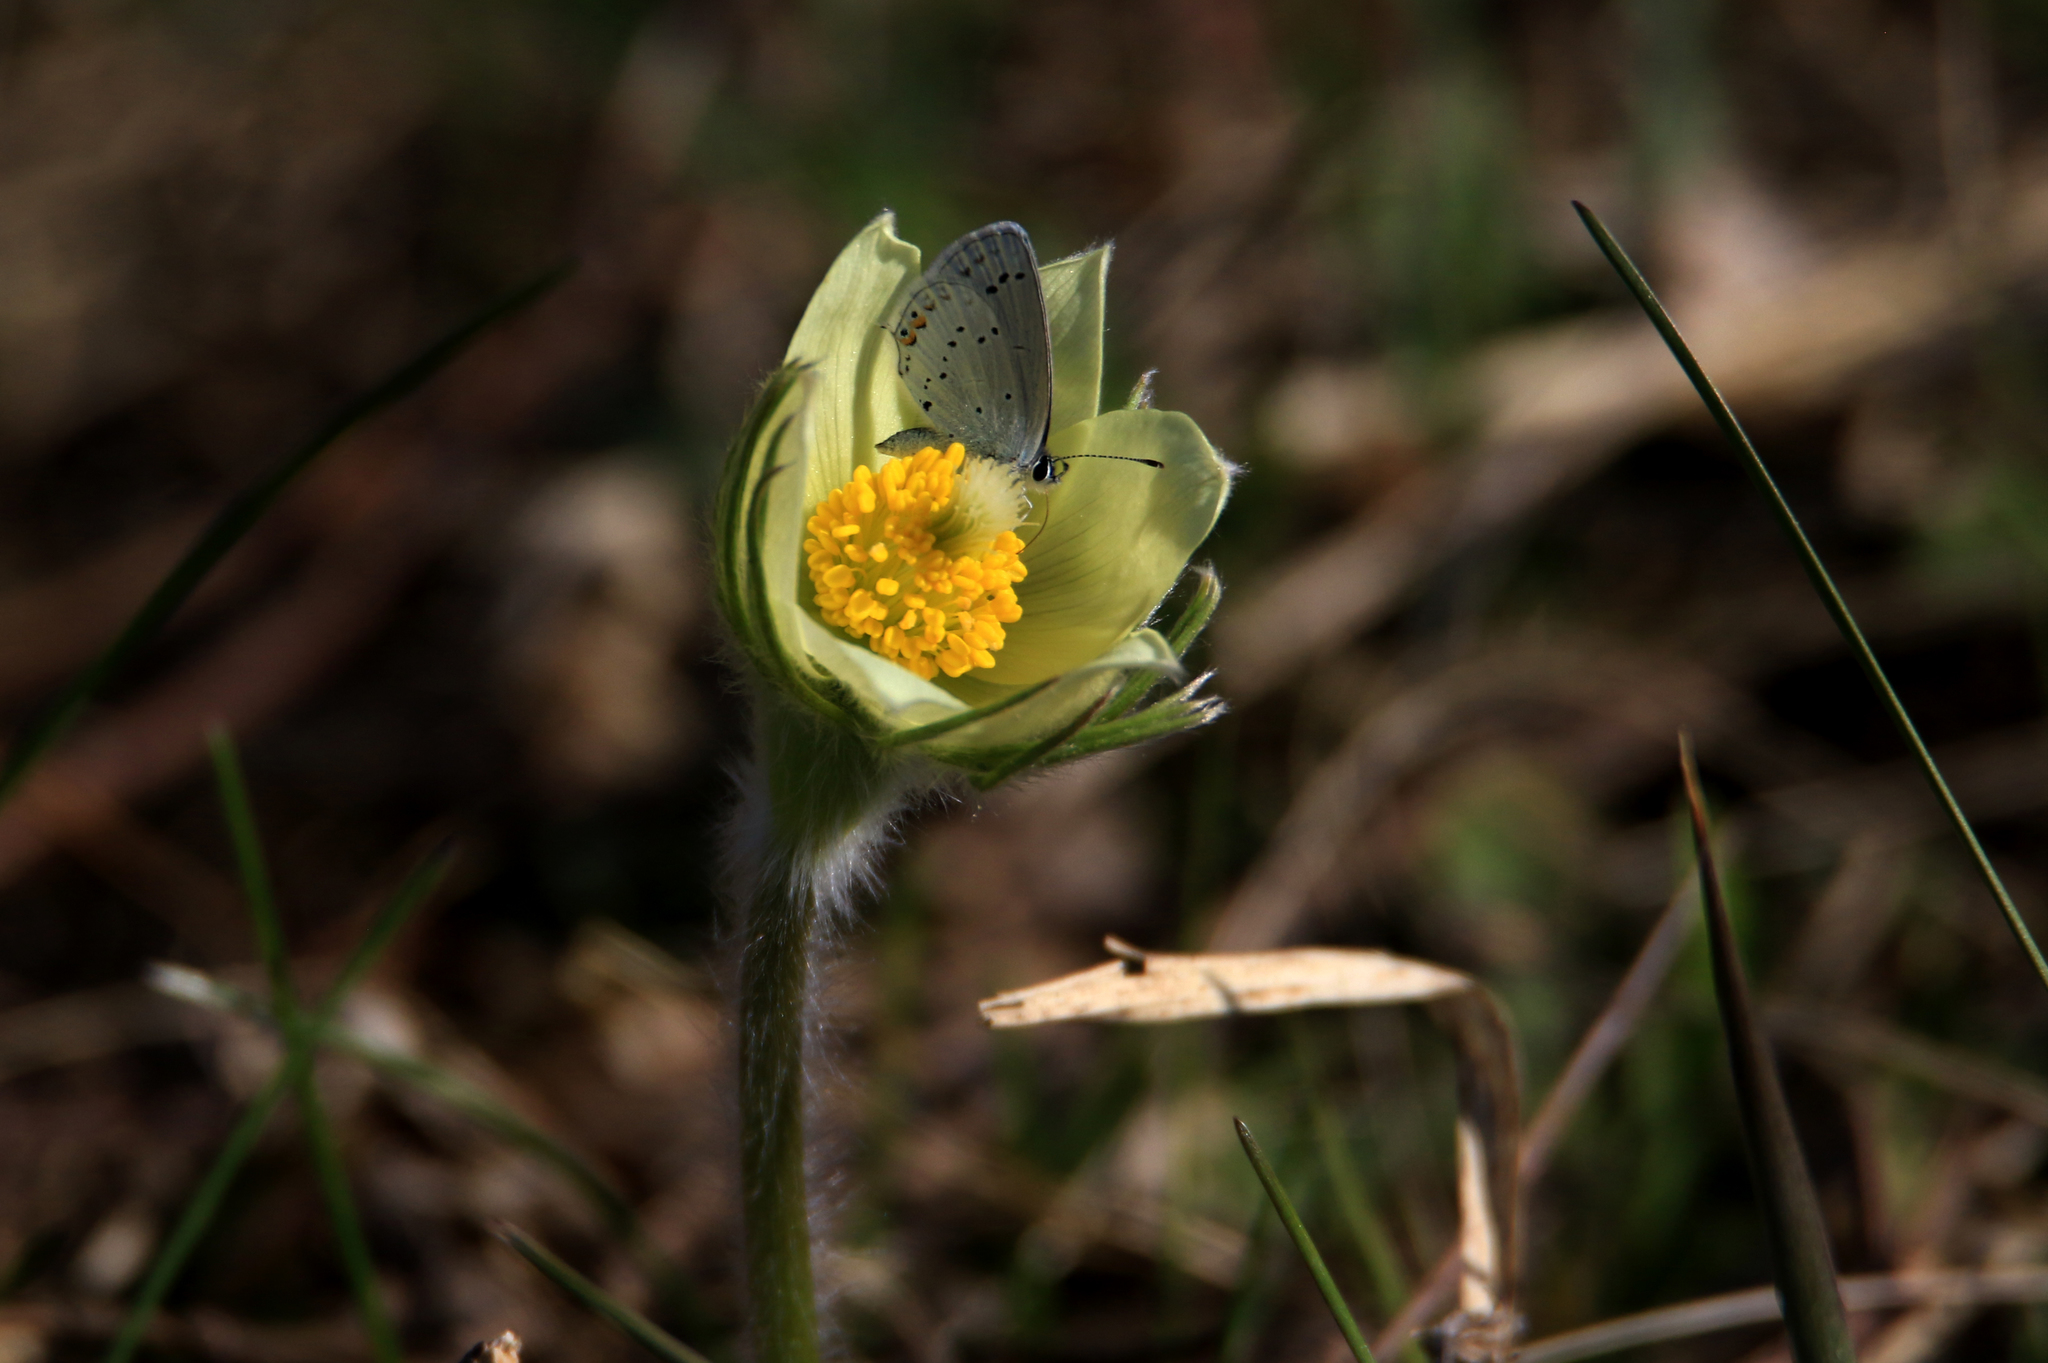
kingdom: Animalia
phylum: Arthropoda
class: Insecta
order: Lepidoptera
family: Lycaenidae
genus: Elkalyce
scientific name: Elkalyce argiades
